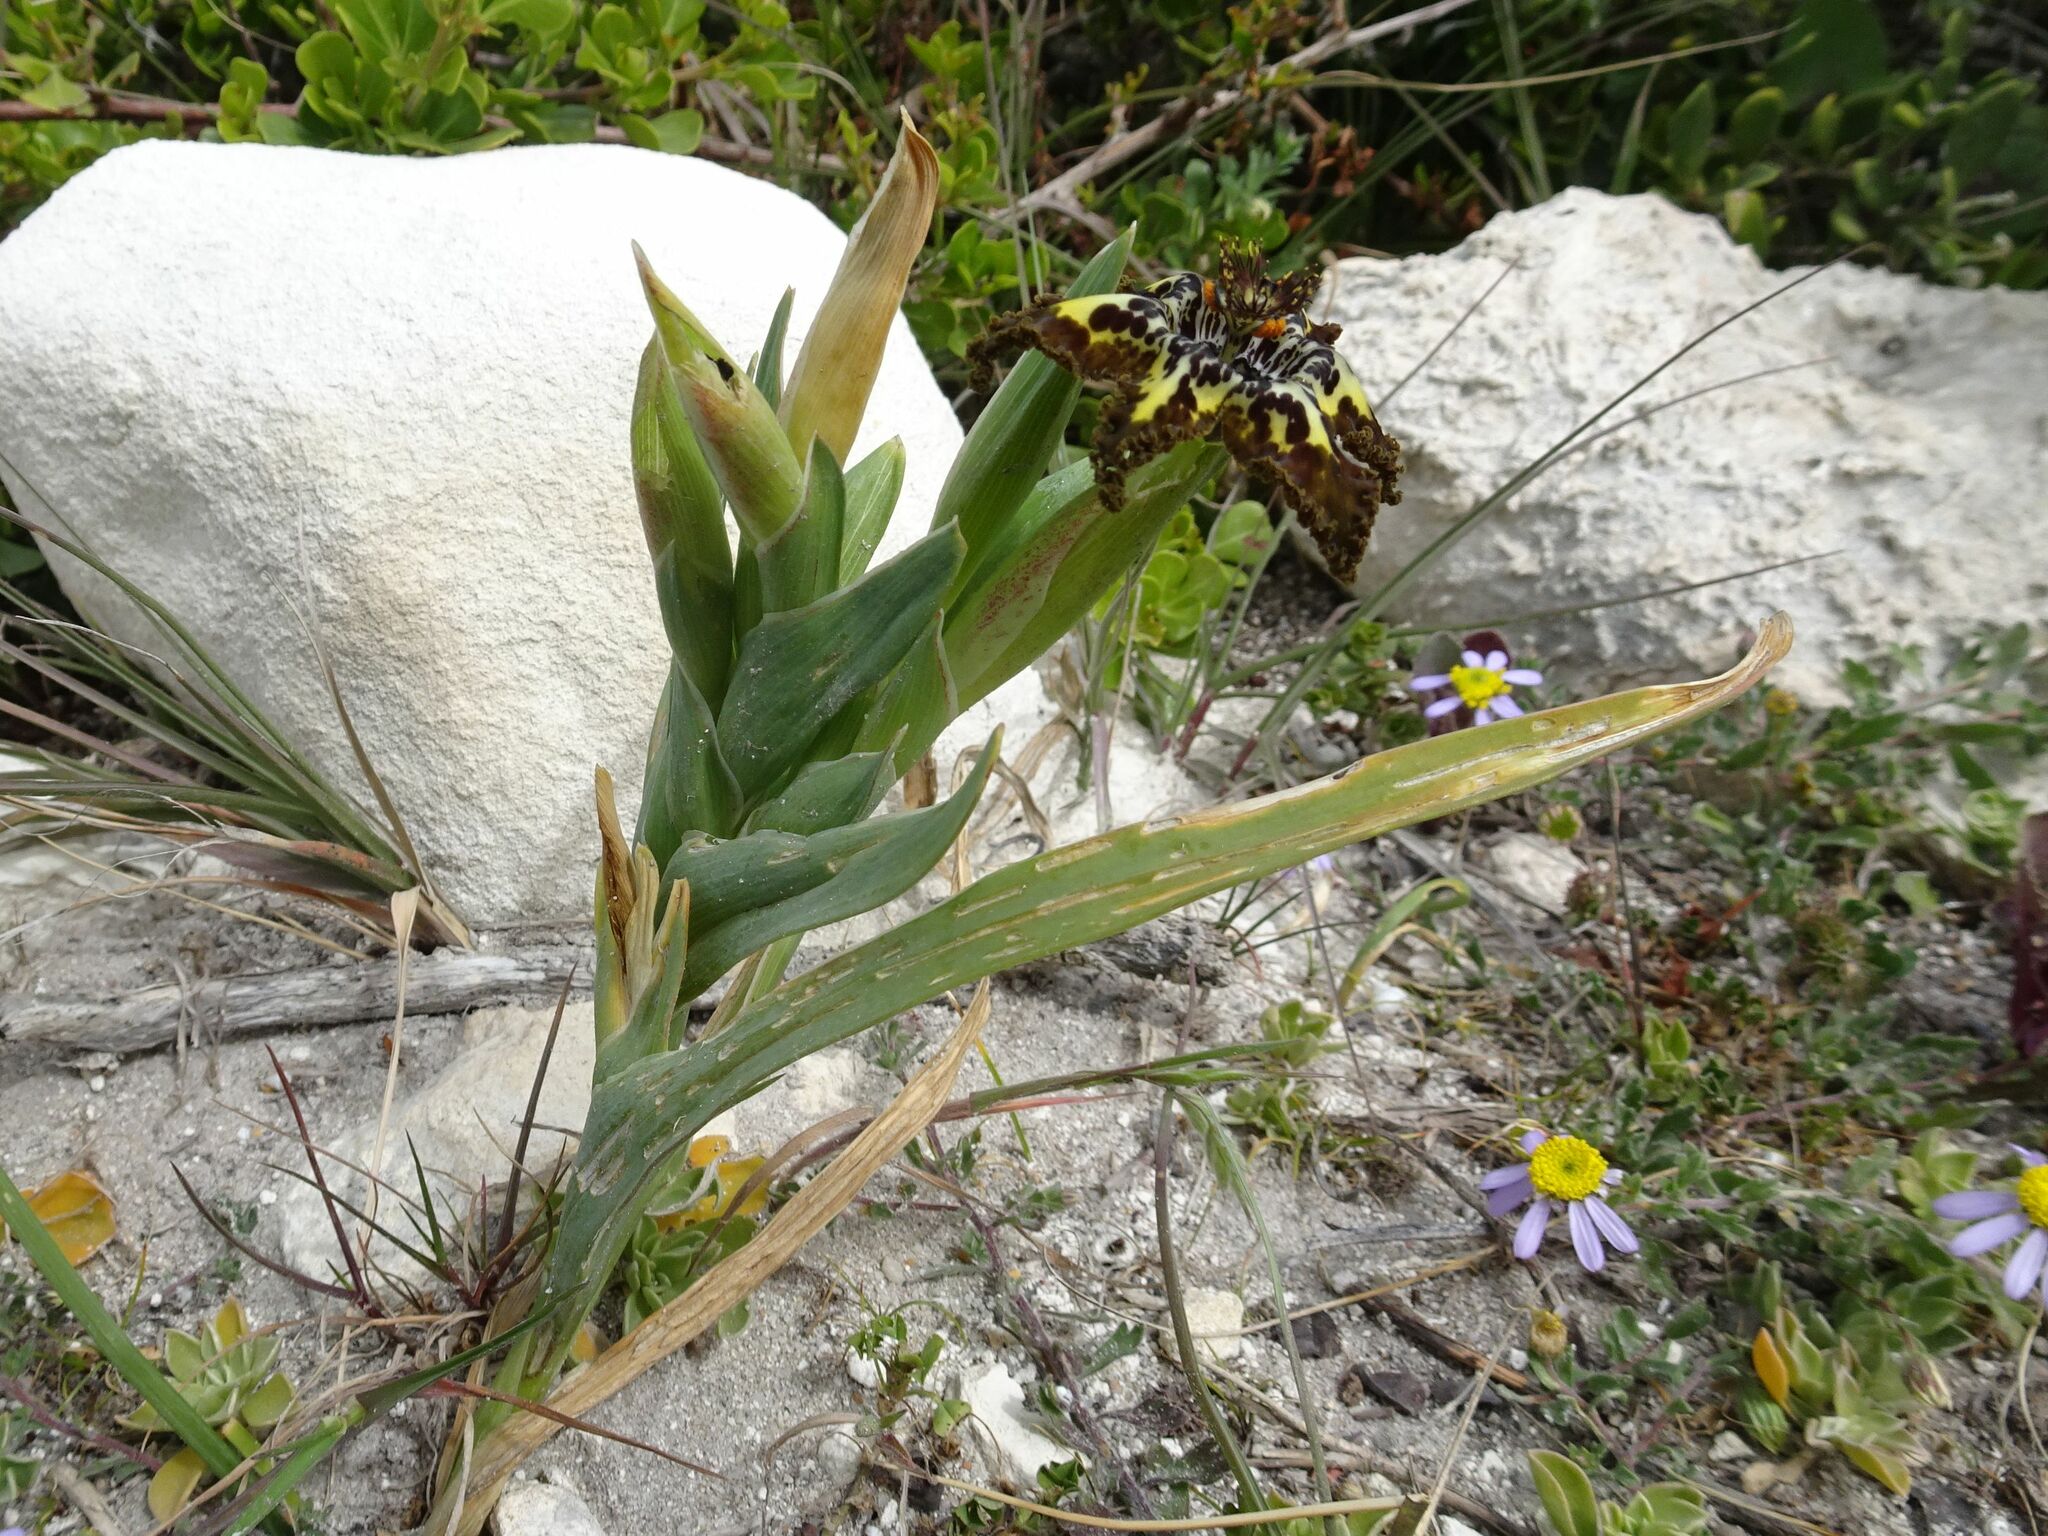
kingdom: Plantae
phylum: Tracheophyta
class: Liliopsida
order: Asparagales
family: Iridaceae
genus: Ferraria
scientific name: Ferraria crispa
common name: Black-flag
